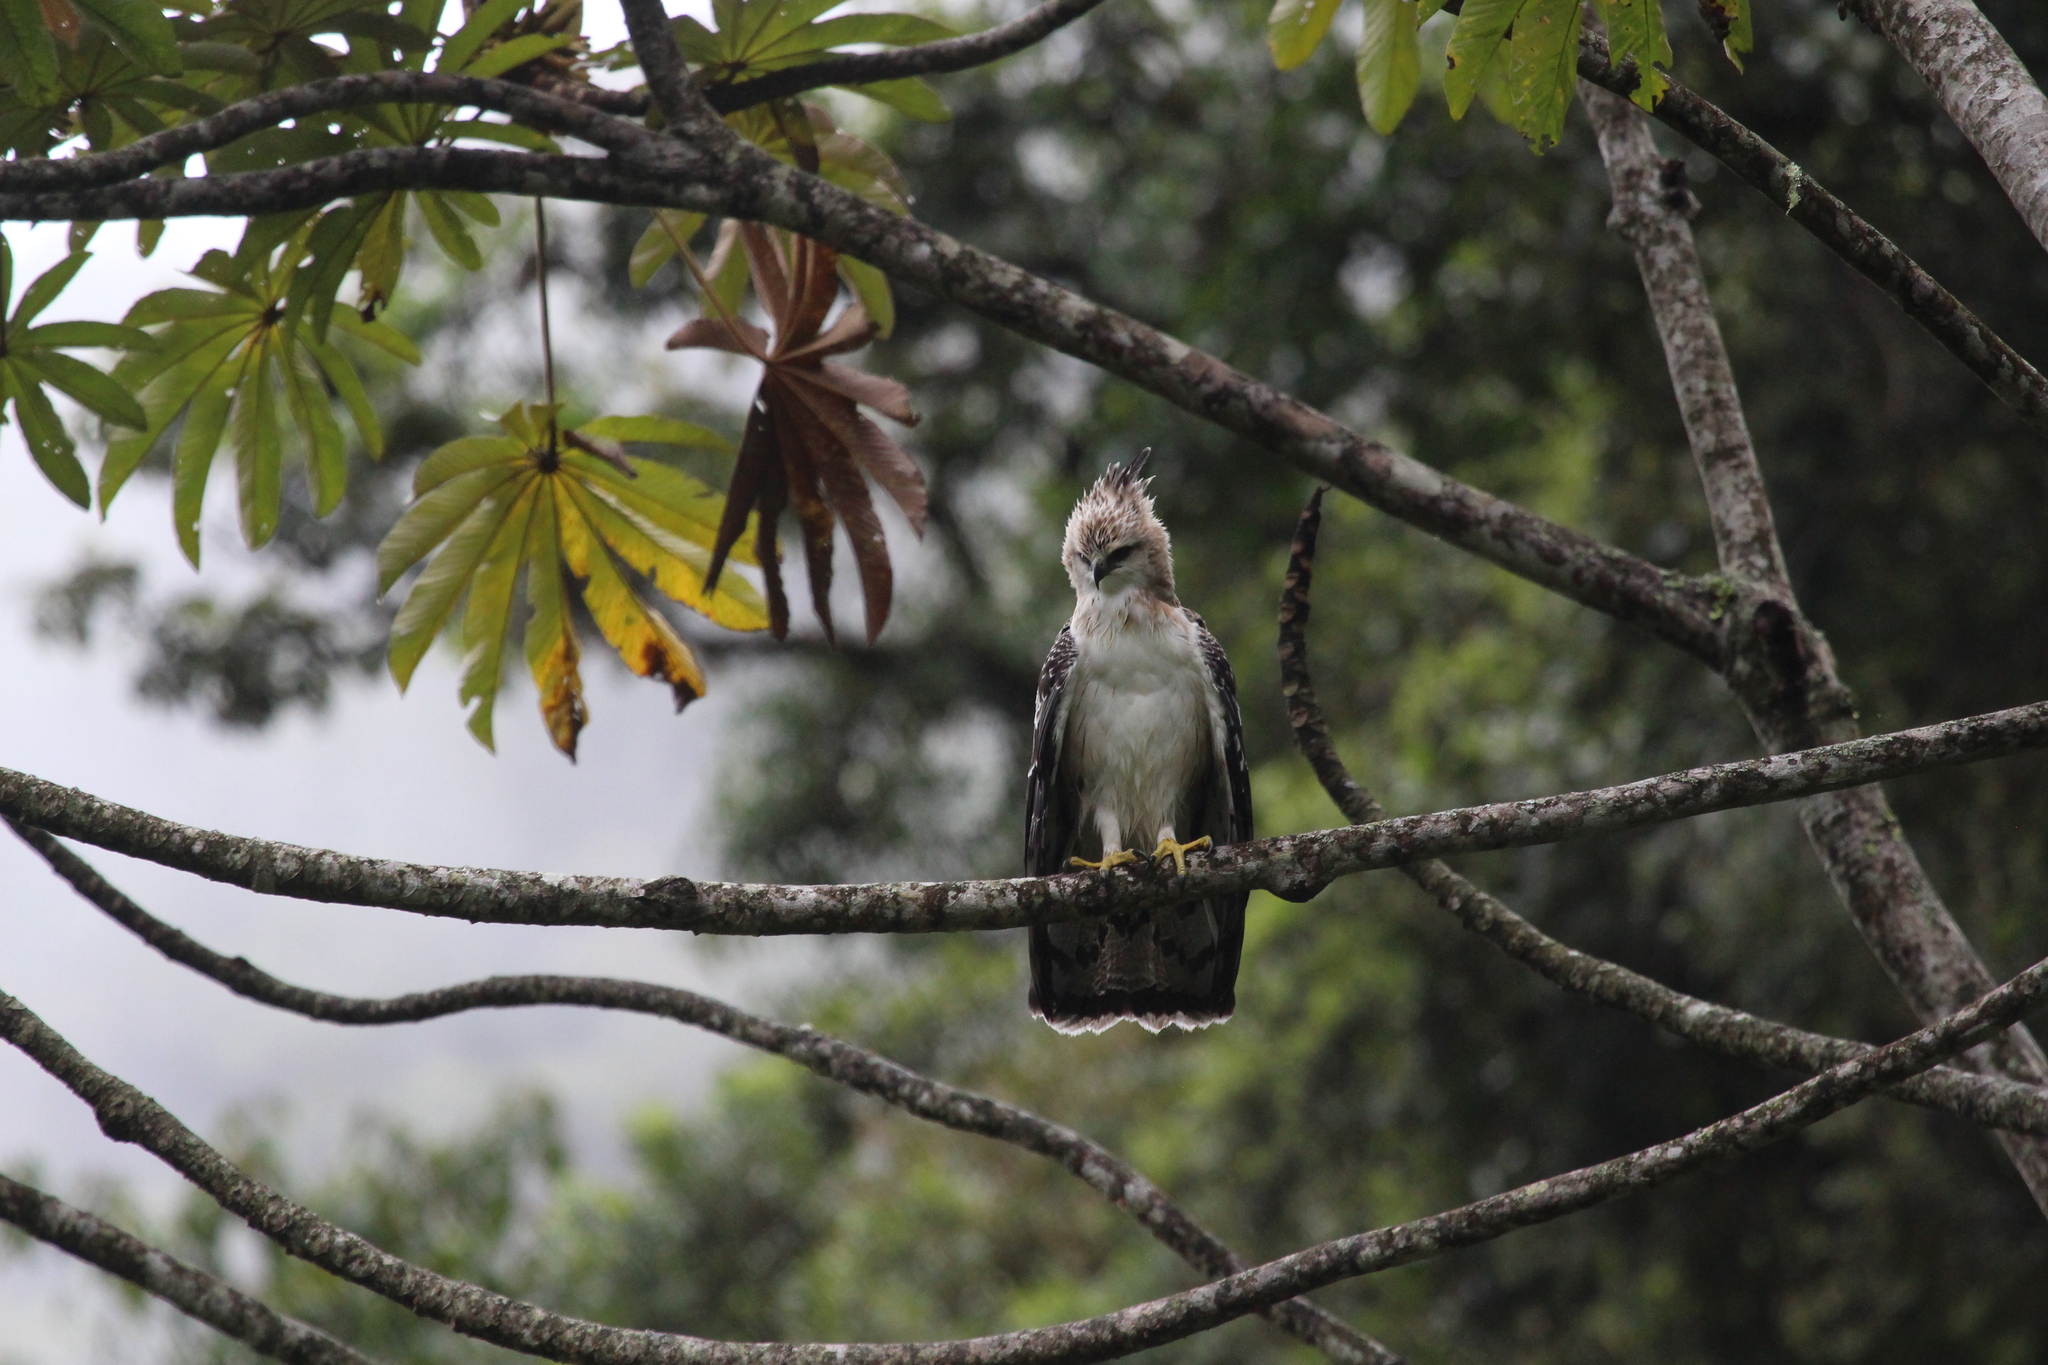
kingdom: Animalia
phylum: Chordata
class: Aves
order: Accipitriformes
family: Accipitridae
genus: Spizaetus
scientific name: Spizaetus isidori
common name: Black-and-chestnut eagle
